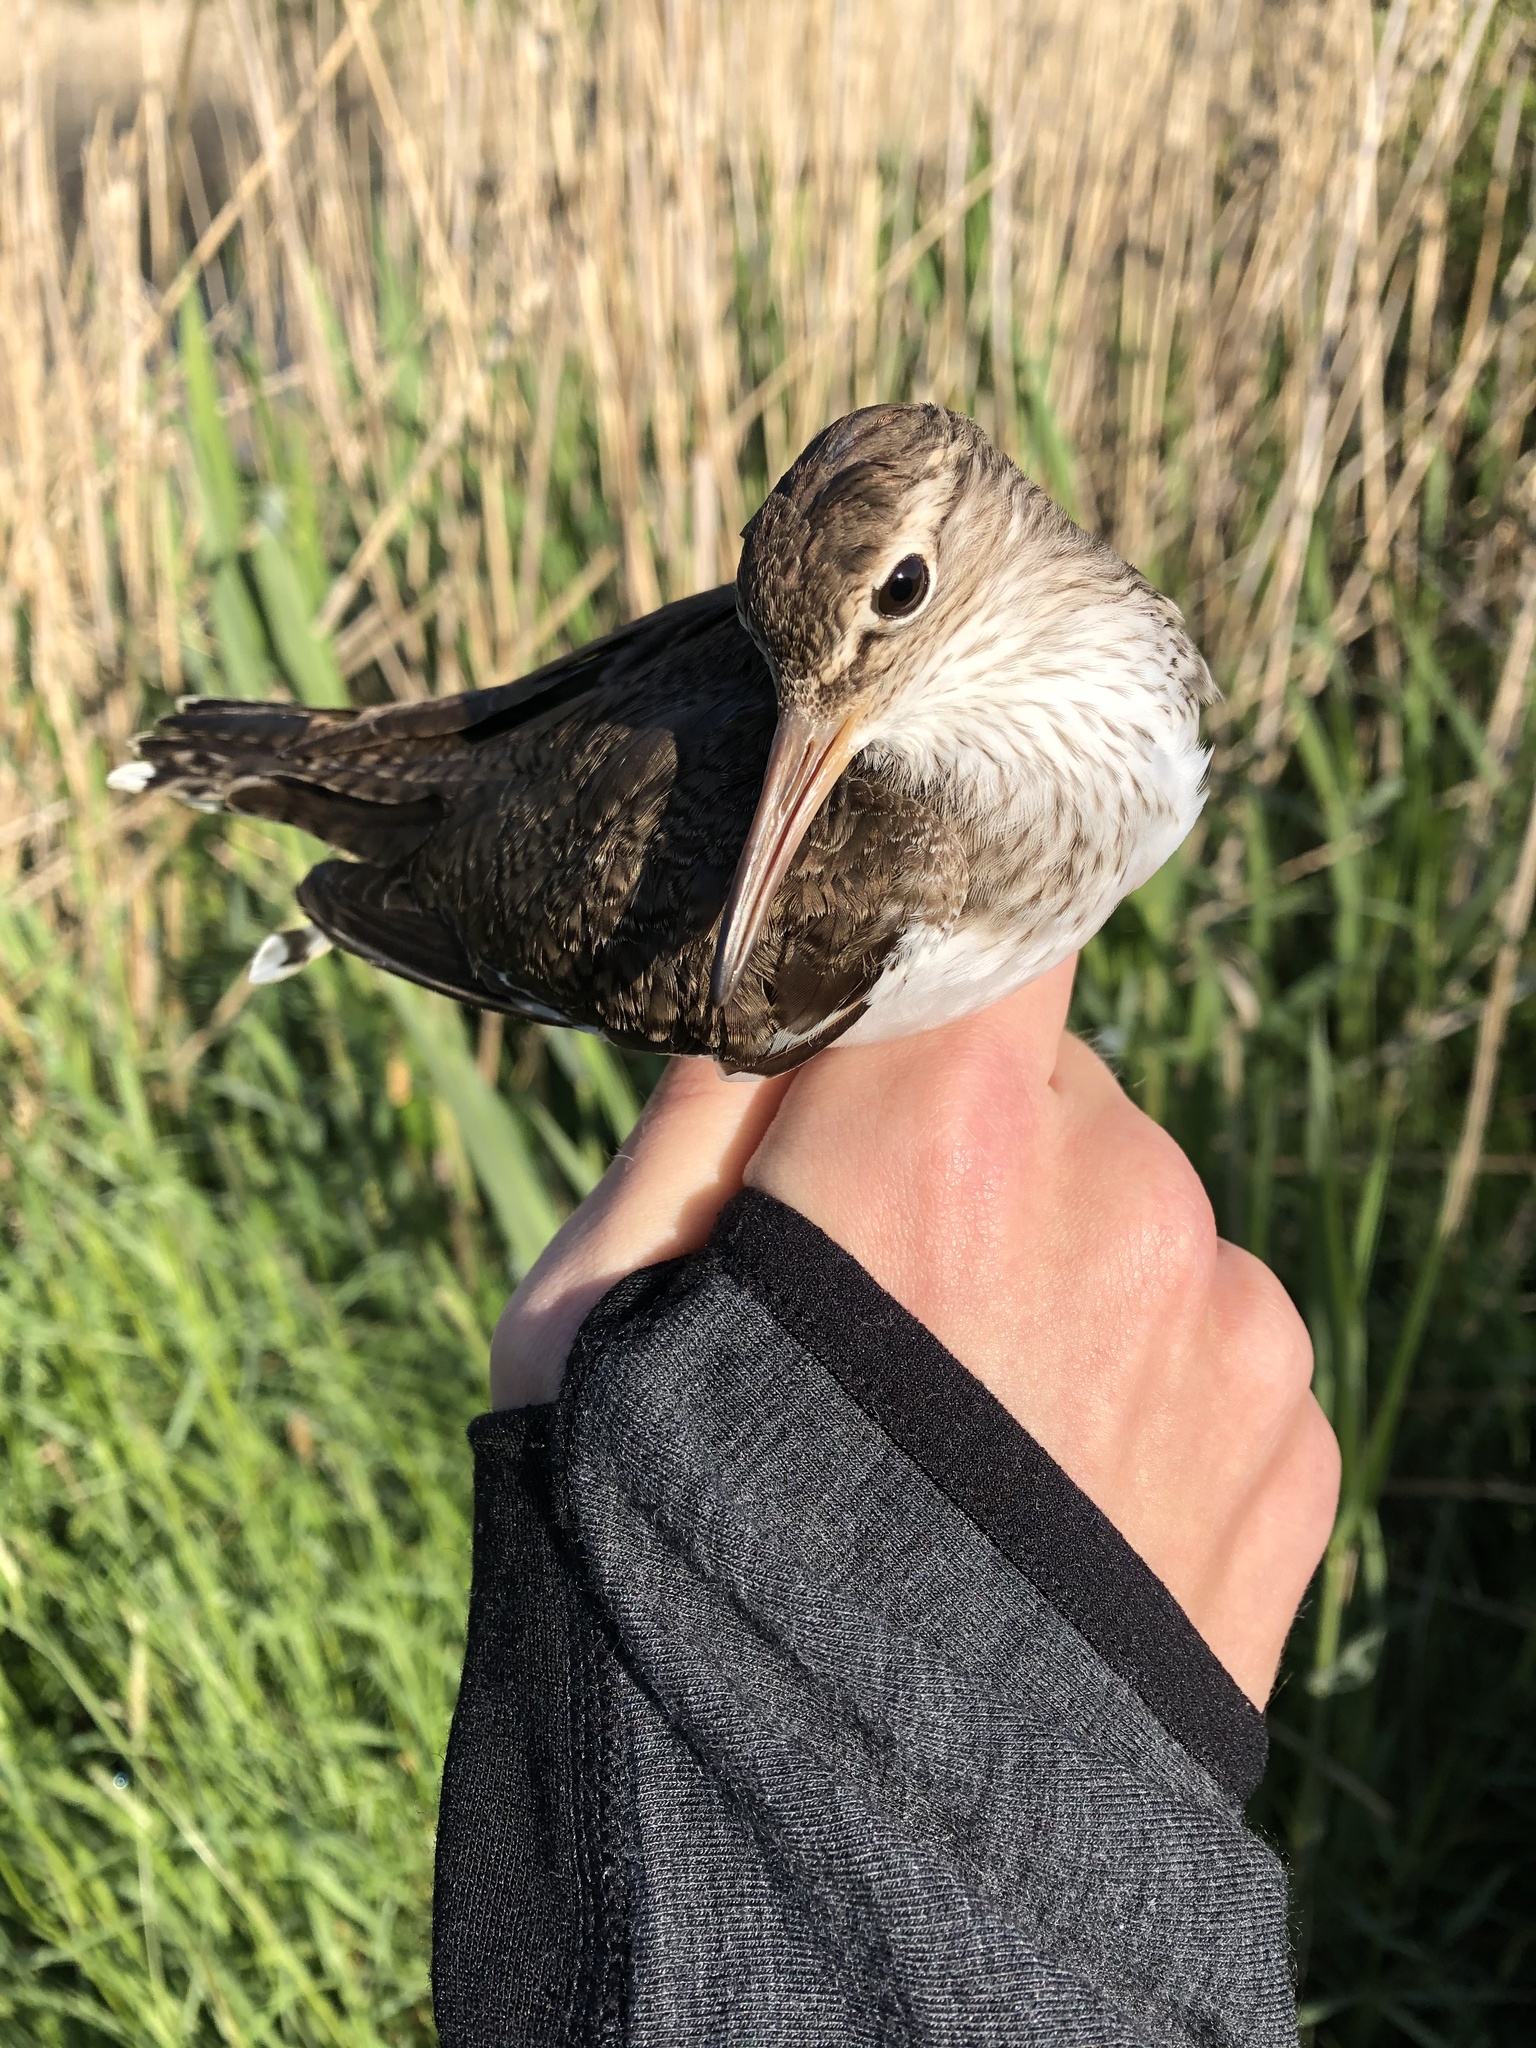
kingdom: Animalia
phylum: Chordata
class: Aves
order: Charadriiformes
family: Scolopacidae
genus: Actitis
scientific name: Actitis hypoleucos
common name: Common sandpiper
